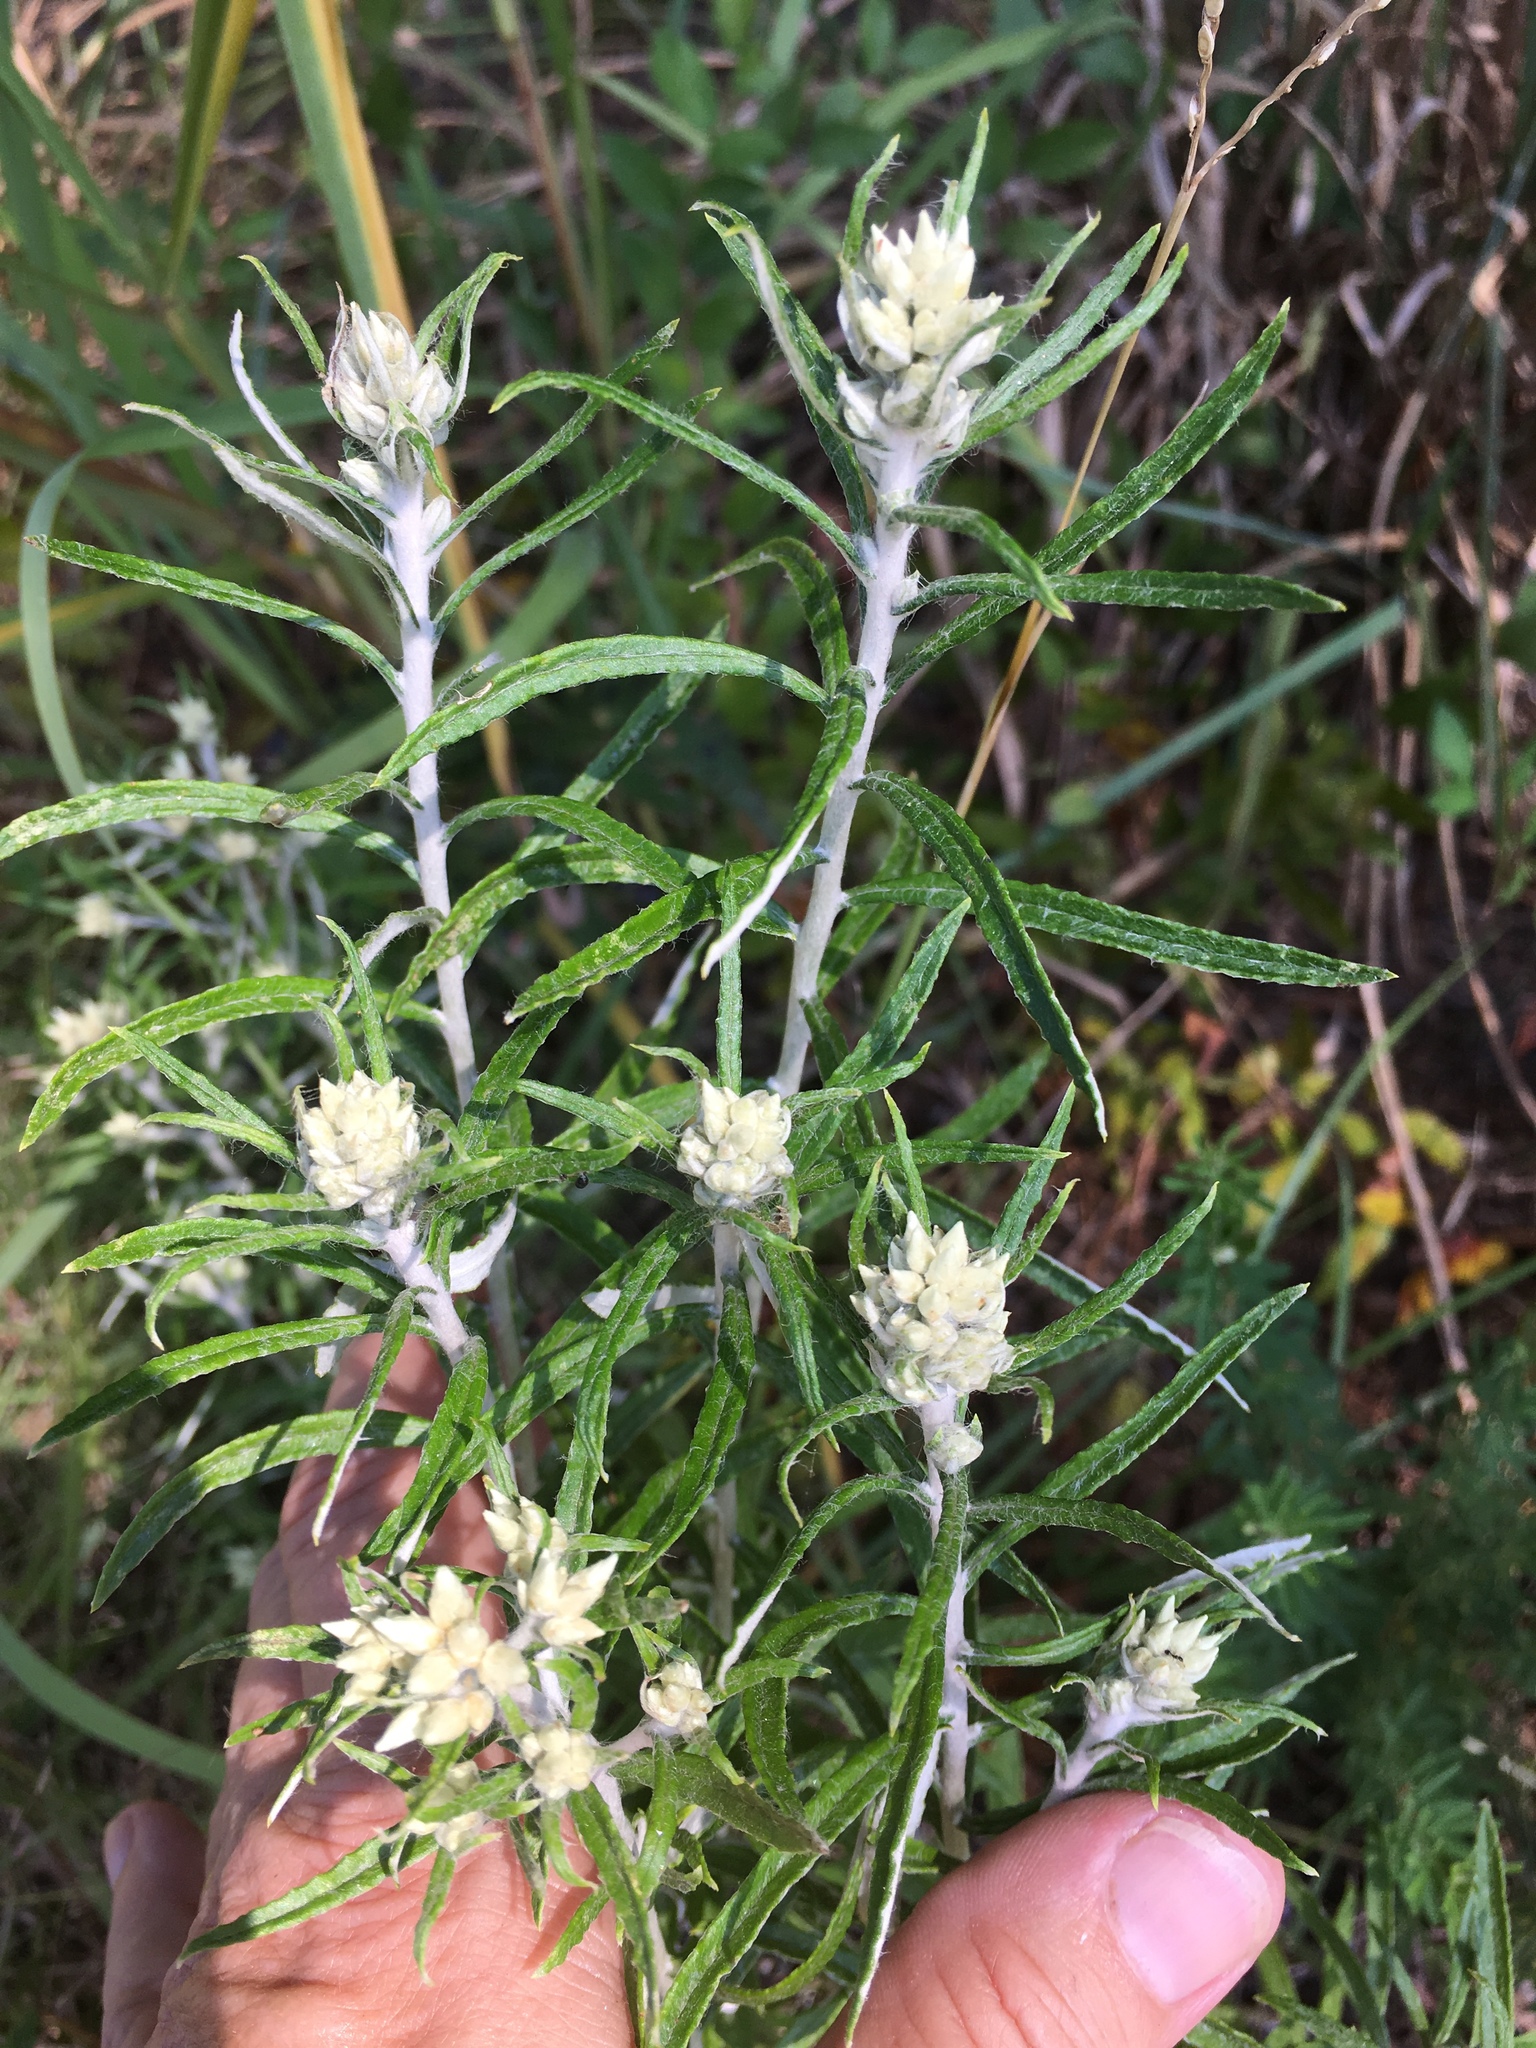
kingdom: Plantae
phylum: Tracheophyta
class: Magnoliopsida
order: Asterales
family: Asteraceae
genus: Pseudognaphalium
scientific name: Pseudognaphalium obtusifolium
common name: Eastern rabbit-tobacco
